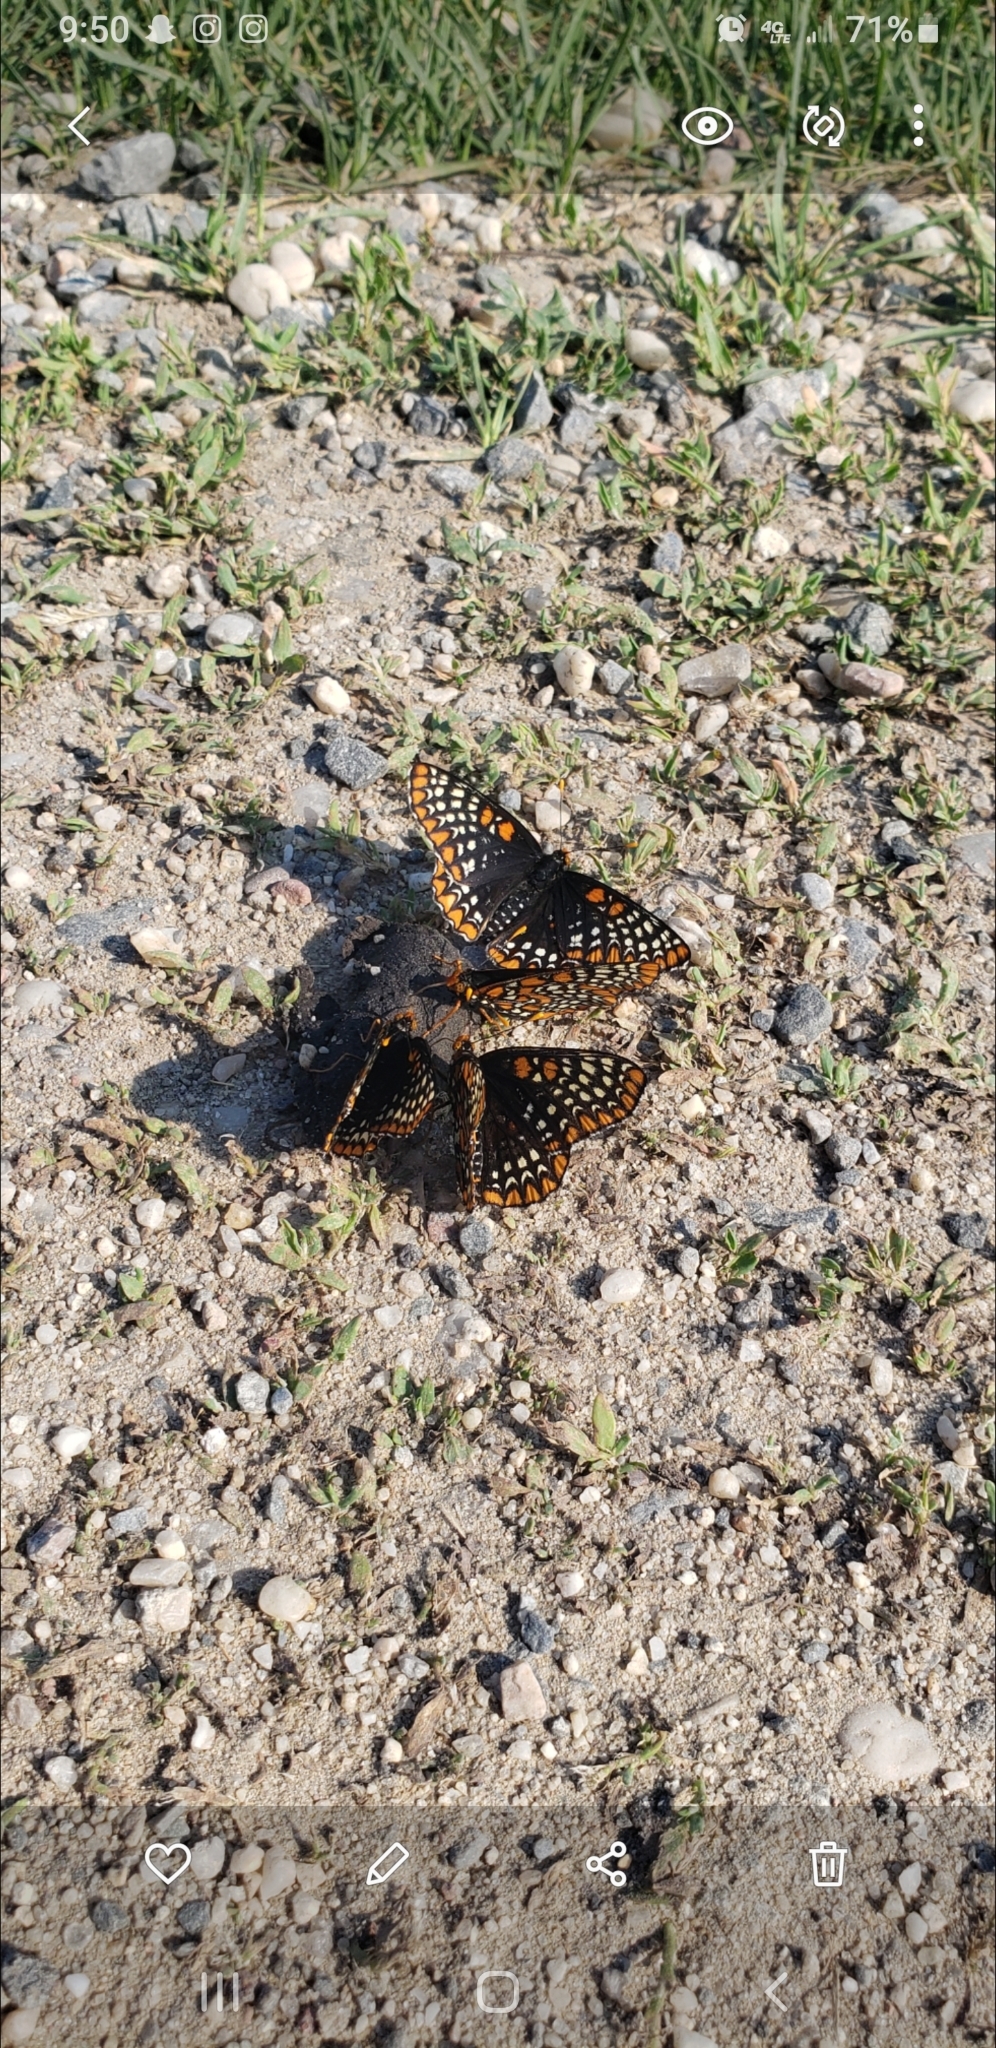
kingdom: Animalia
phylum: Arthropoda
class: Insecta
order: Lepidoptera
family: Nymphalidae
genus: Euphydryas
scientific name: Euphydryas phaeton
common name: Baltimore checkerspot
